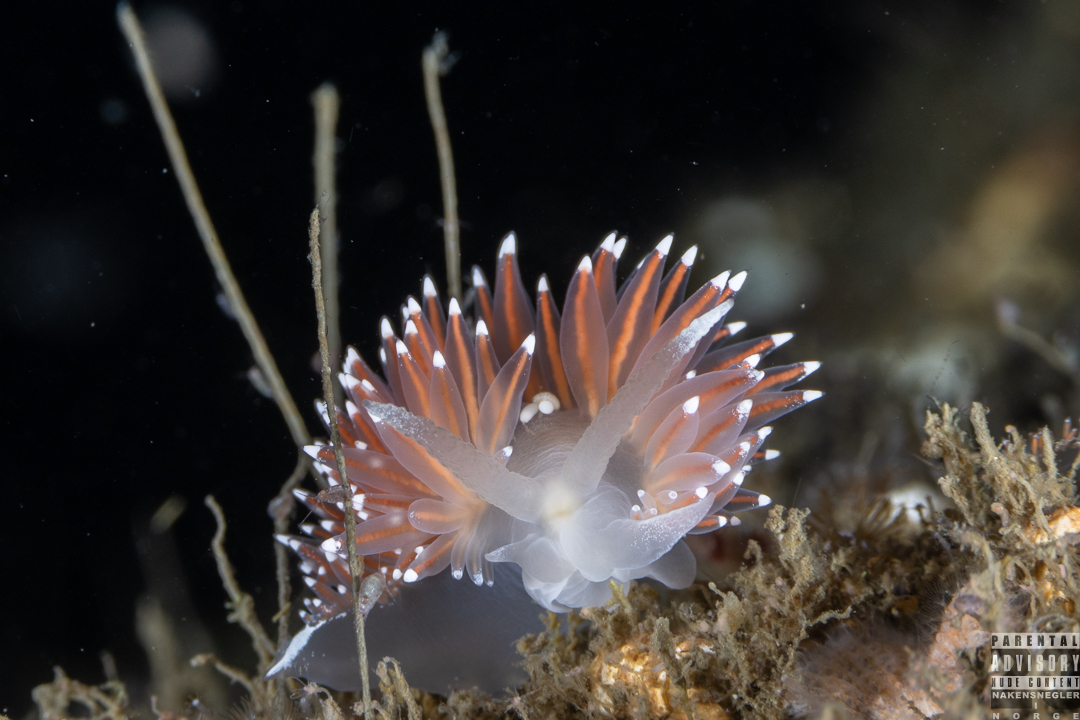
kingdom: Animalia
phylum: Mollusca
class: Gastropoda
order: Nudibranchia
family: Coryphellidae
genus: Coryphella
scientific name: Coryphella nobilis
